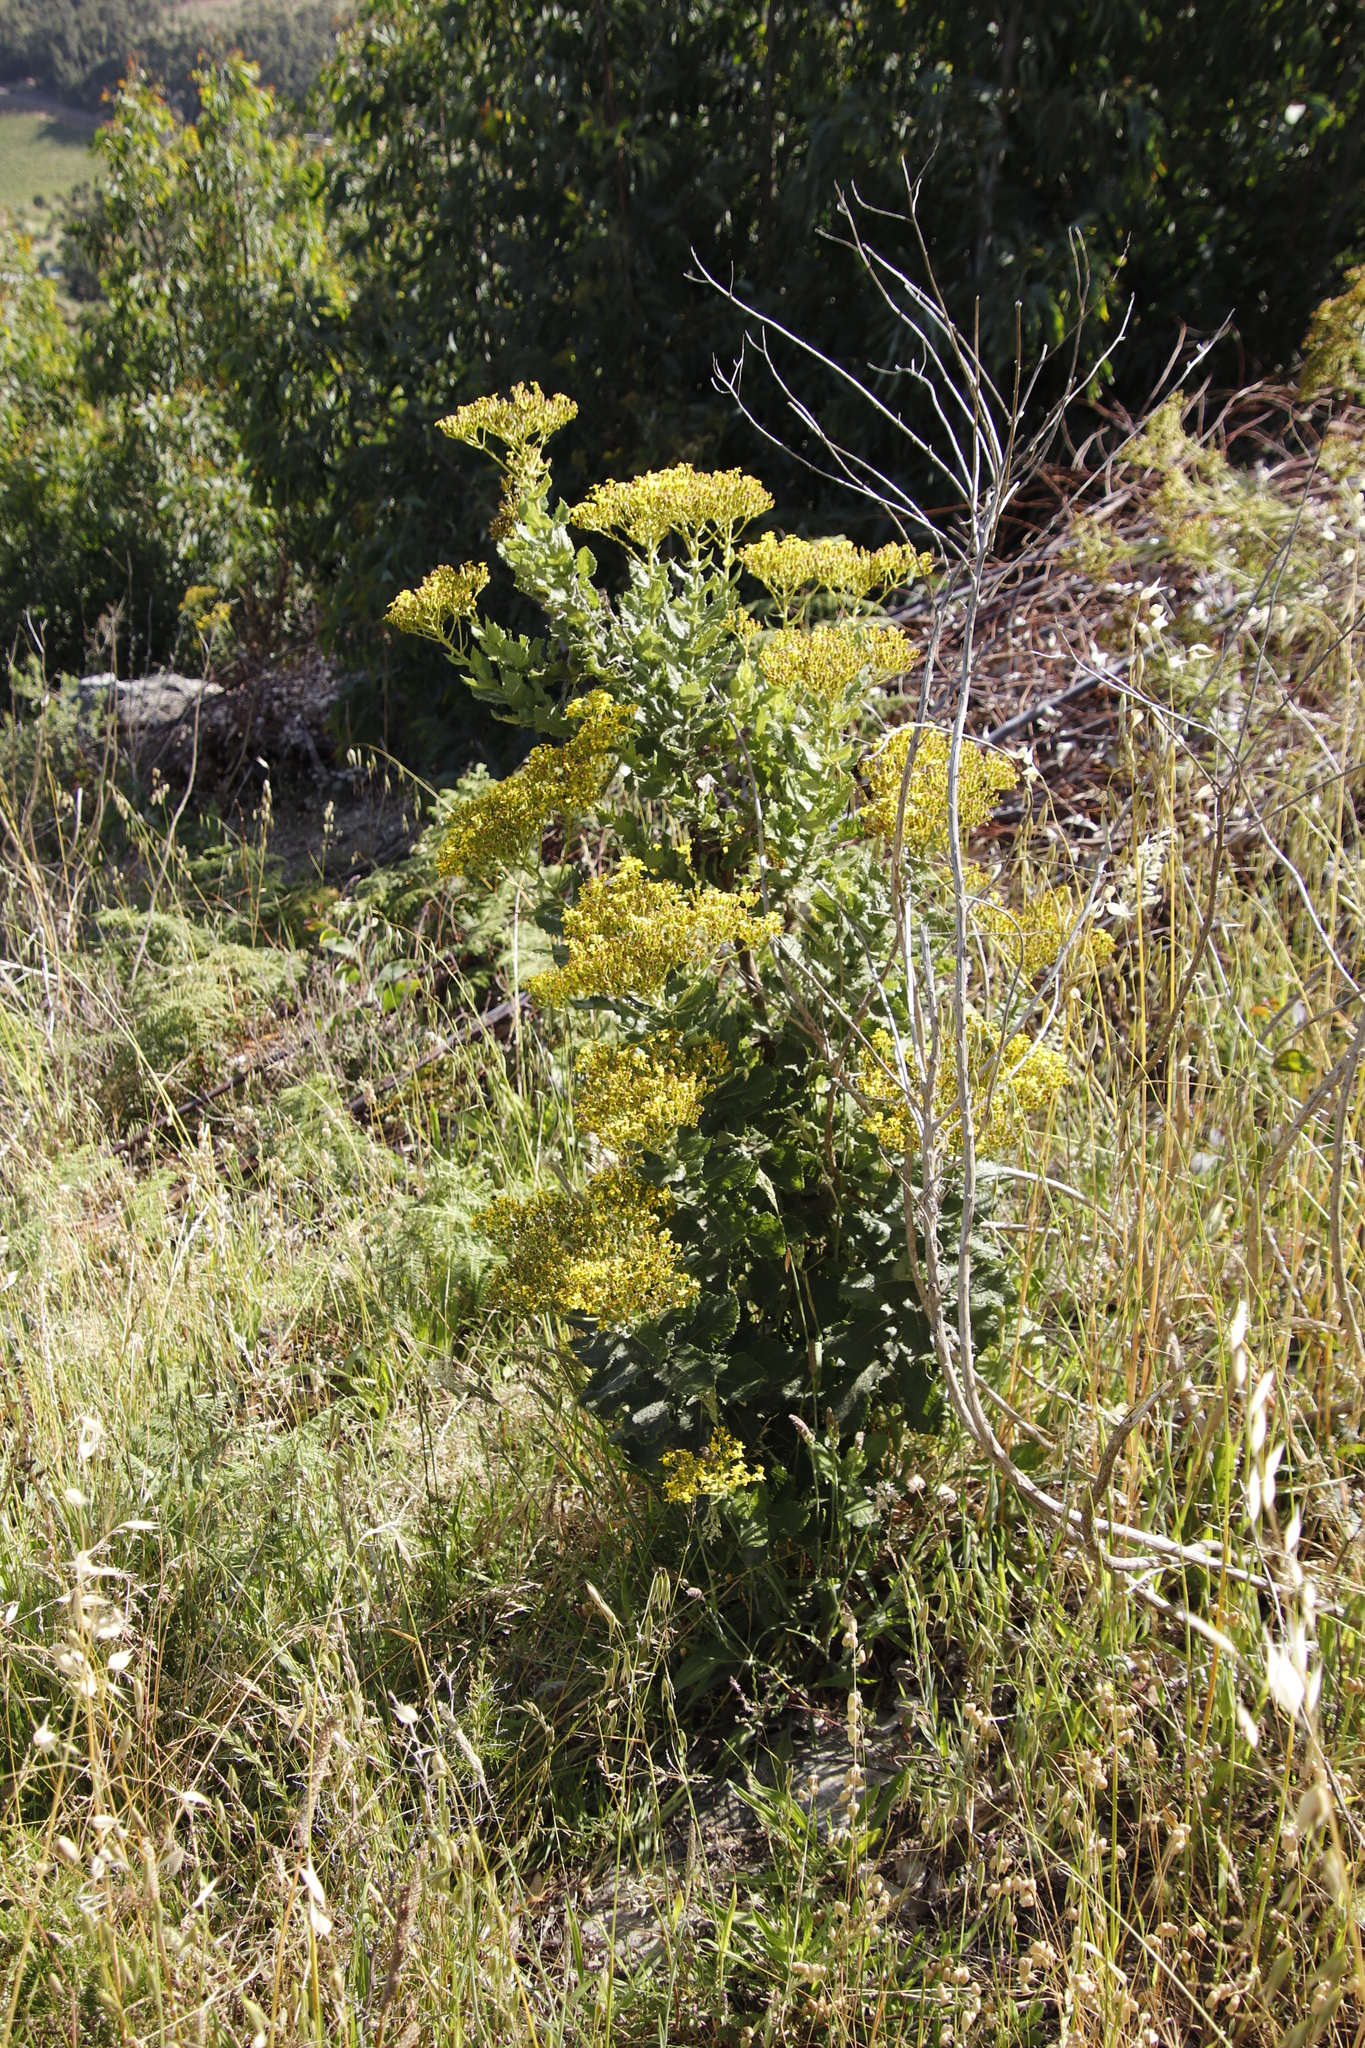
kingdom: Plantae
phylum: Tracheophyta
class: Magnoliopsida
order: Asterales
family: Asteraceae
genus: Senecio
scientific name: Senecio rigidus
